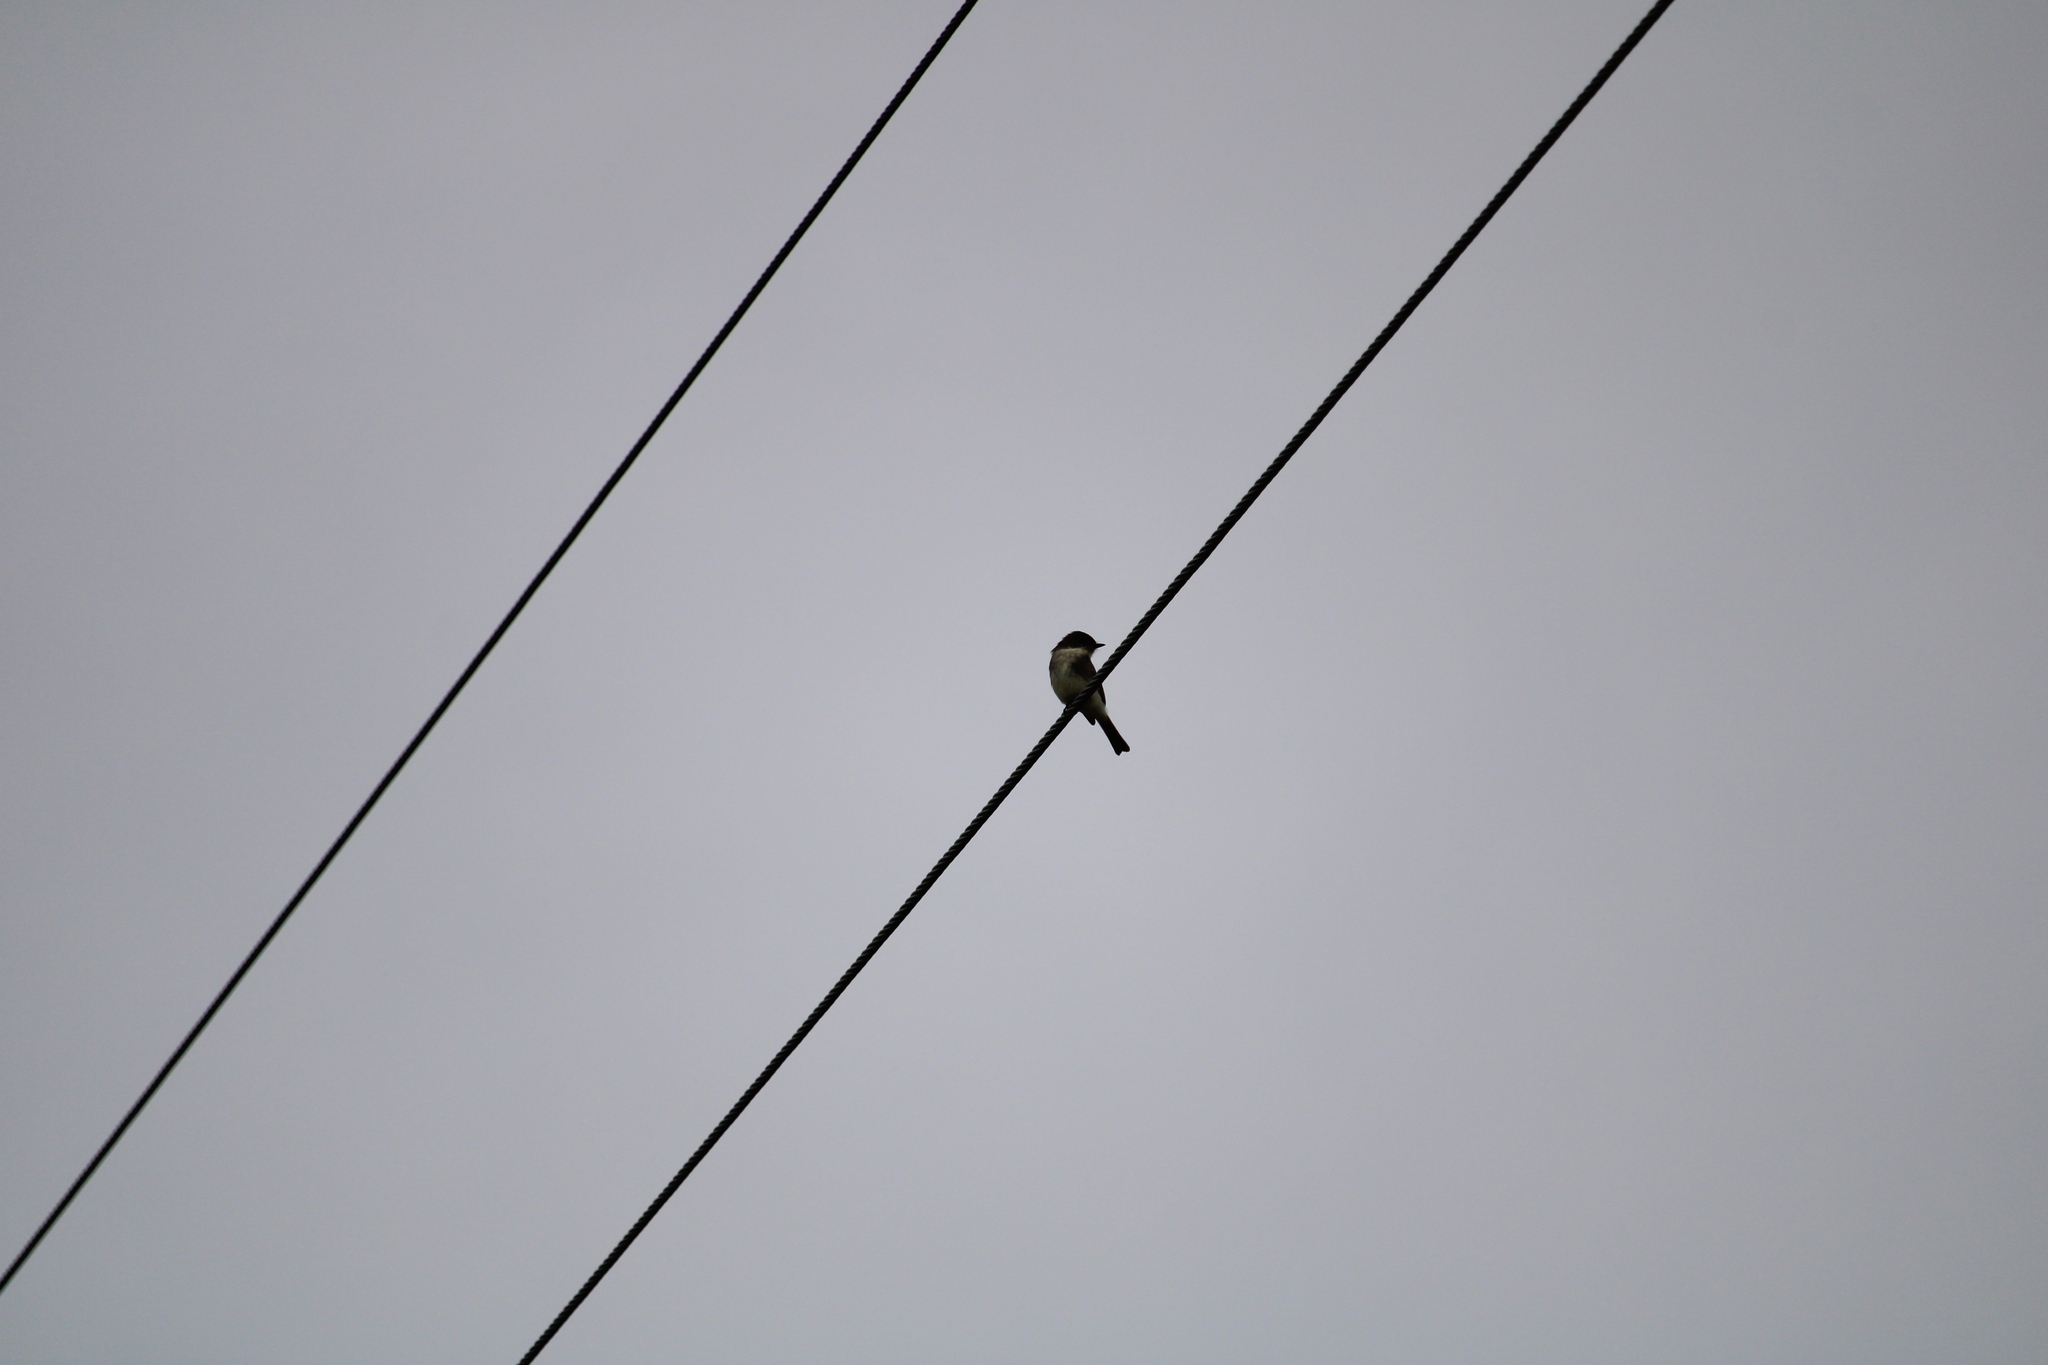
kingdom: Animalia
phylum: Chordata
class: Aves
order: Passeriformes
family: Tyrannidae
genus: Sayornis
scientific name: Sayornis phoebe
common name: Eastern phoebe
